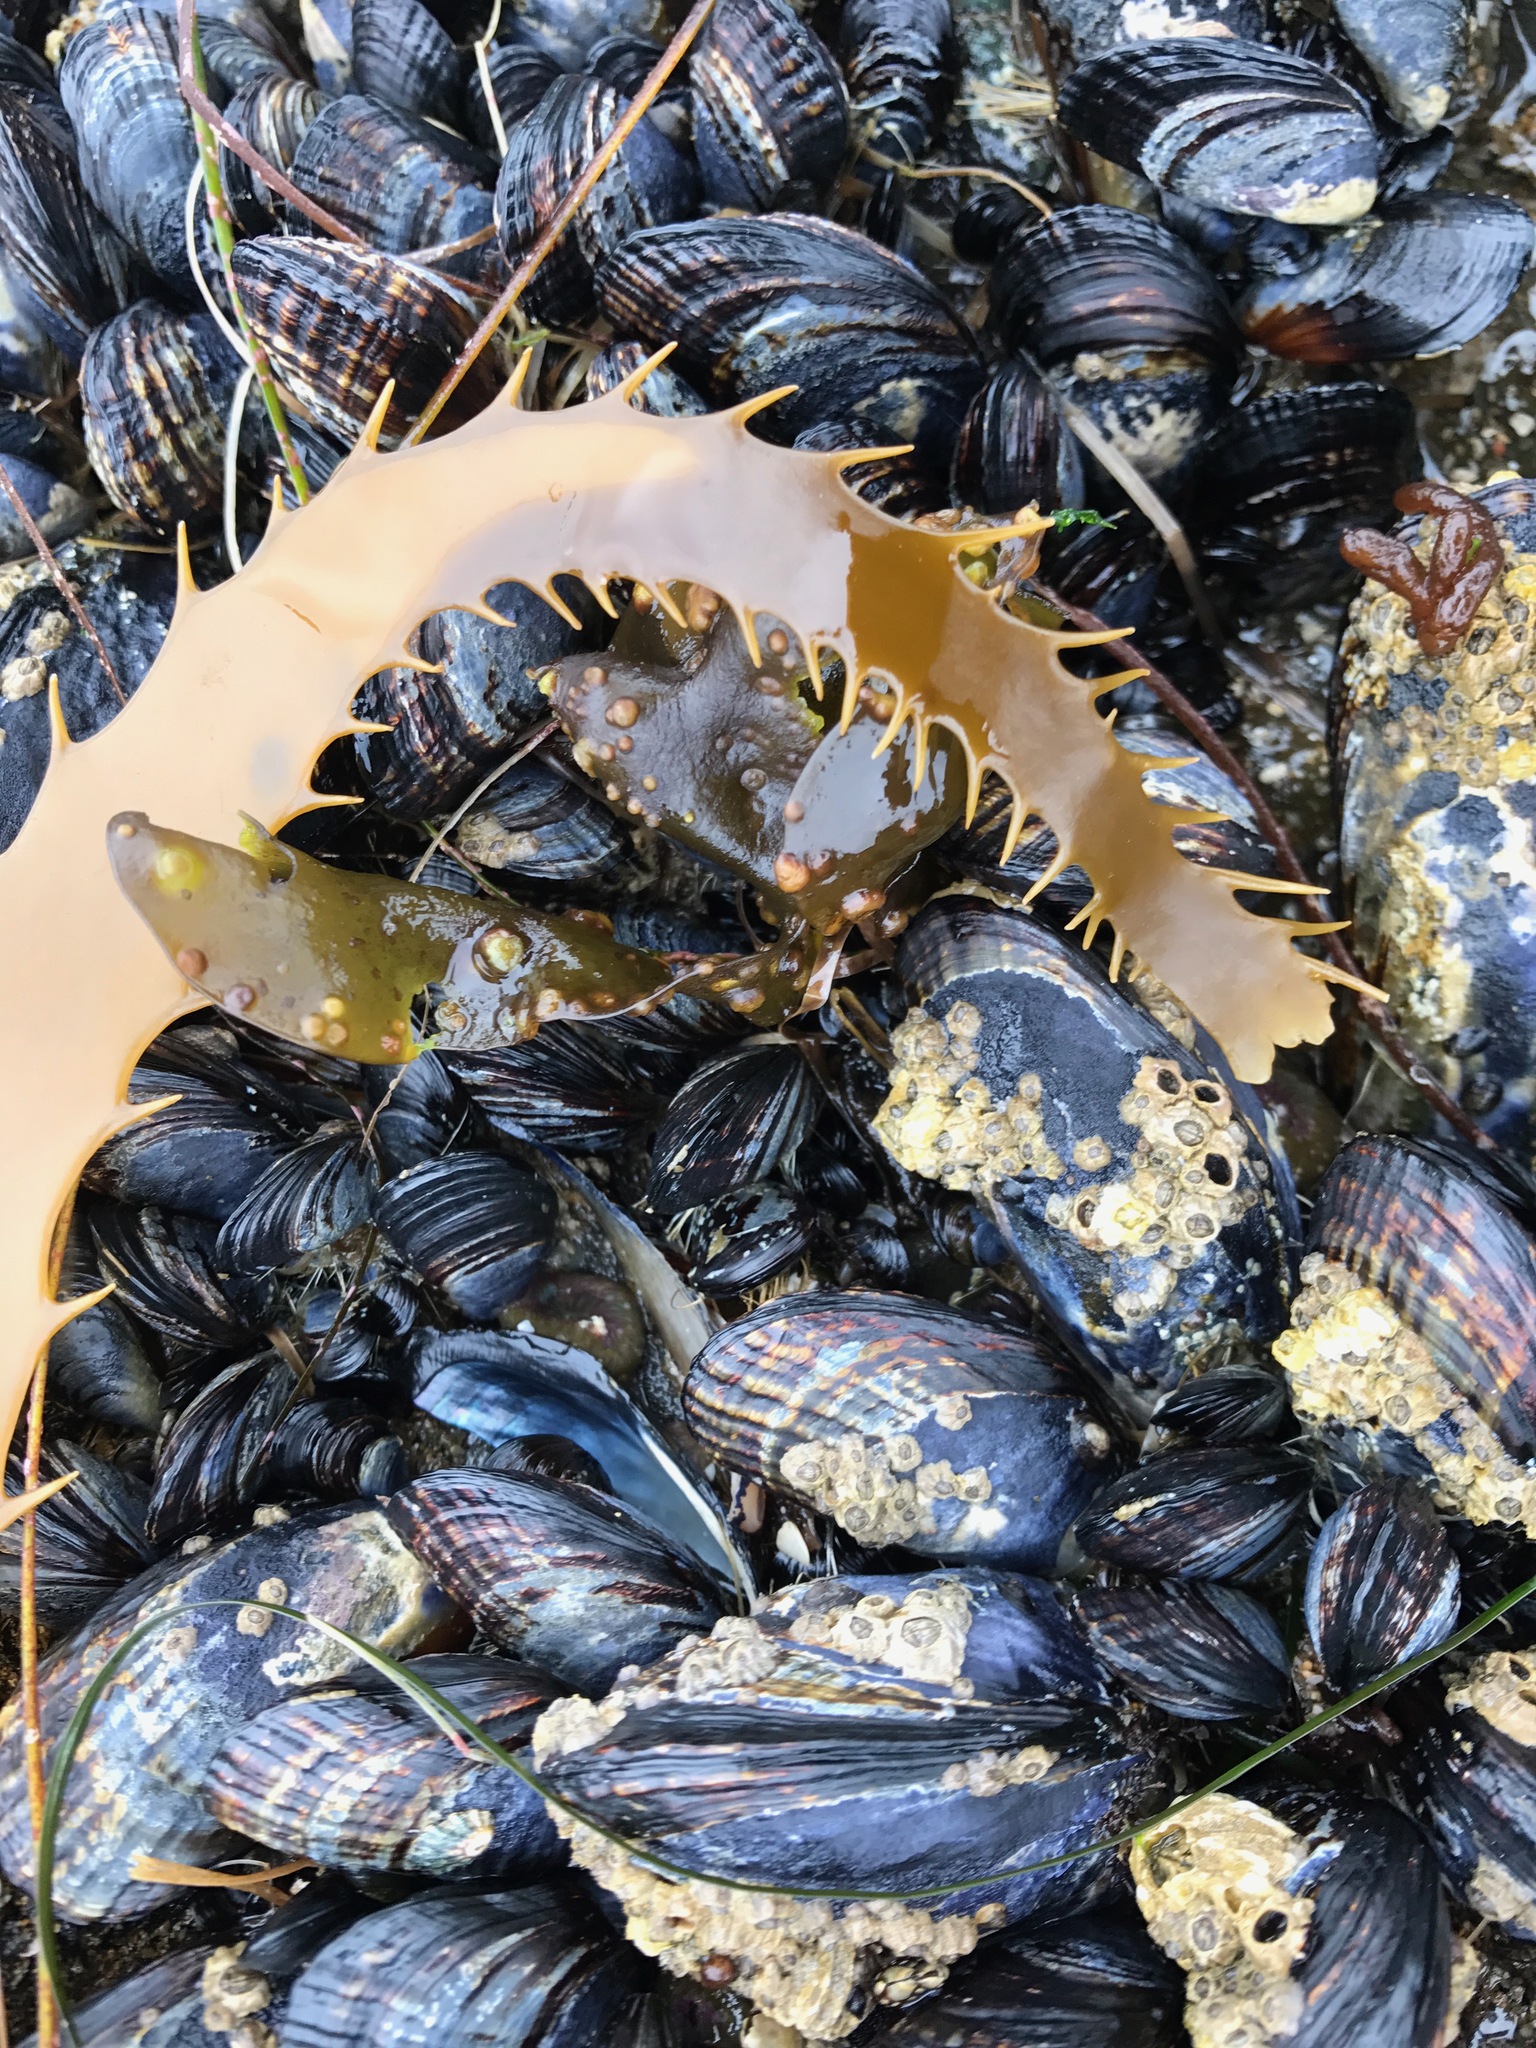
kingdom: Chromista
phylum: Ochrophyta
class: Phaeophyceae
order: Laminariales
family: Laminariaceae
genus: Macrocystis
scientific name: Macrocystis pyrifera
